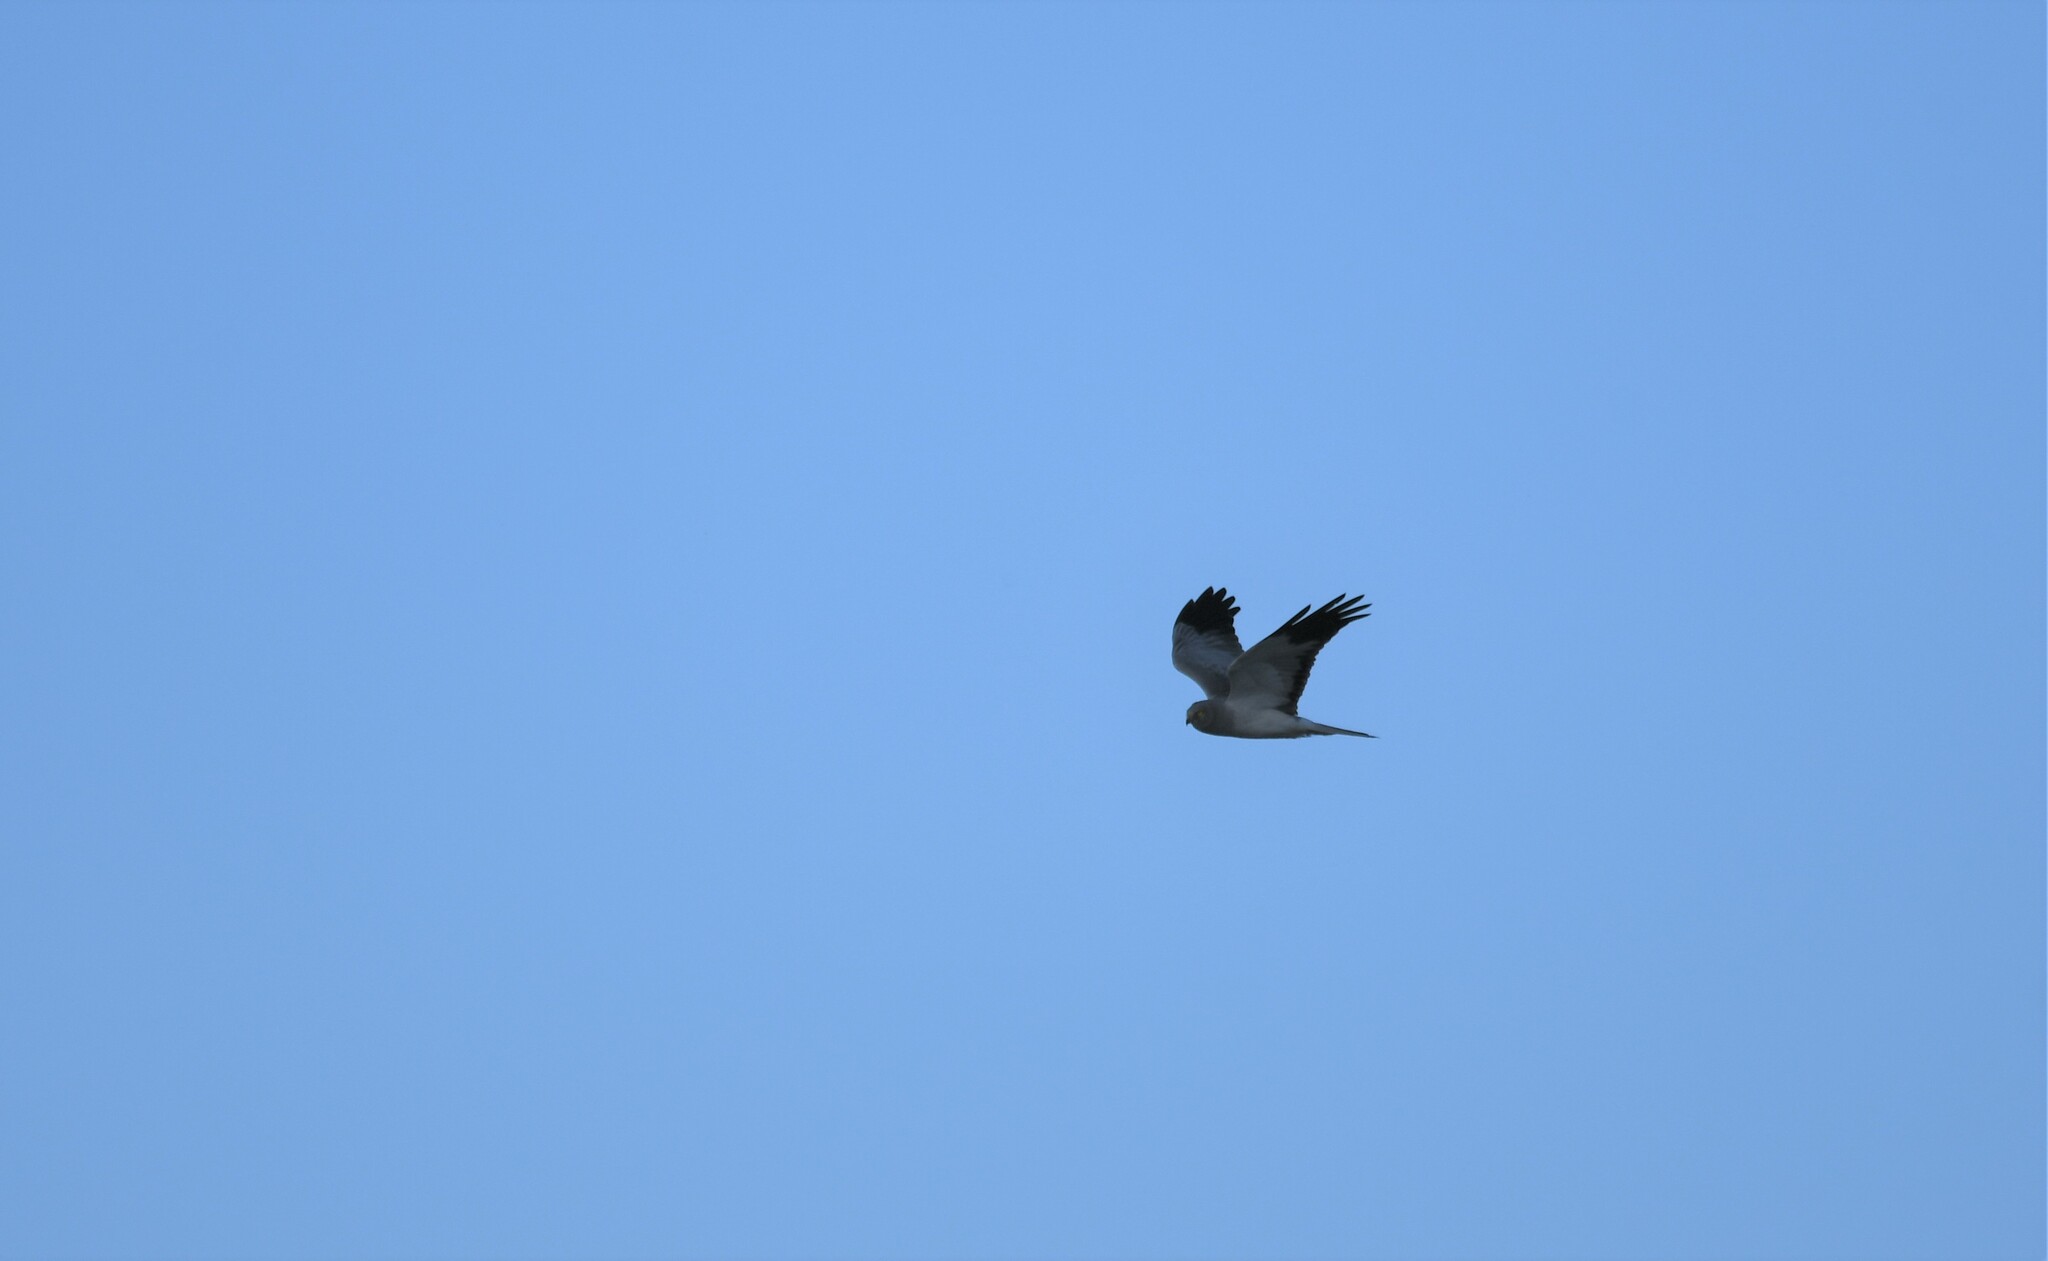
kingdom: Animalia
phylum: Chordata
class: Aves
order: Accipitriformes
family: Accipitridae
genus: Circus
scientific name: Circus cyaneus
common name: Hen harrier
